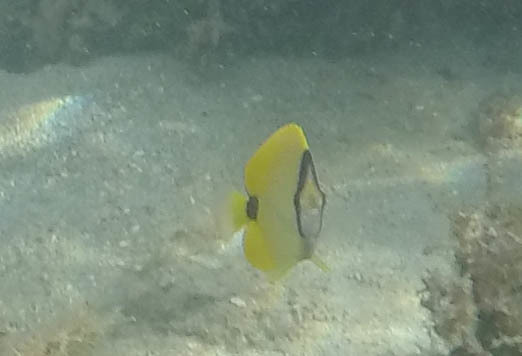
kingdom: Animalia
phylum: Chordata
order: Perciformes
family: Chaetodontidae
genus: Chaetodon
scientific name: Chaetodon miliaris
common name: Lemon butterflyfish
